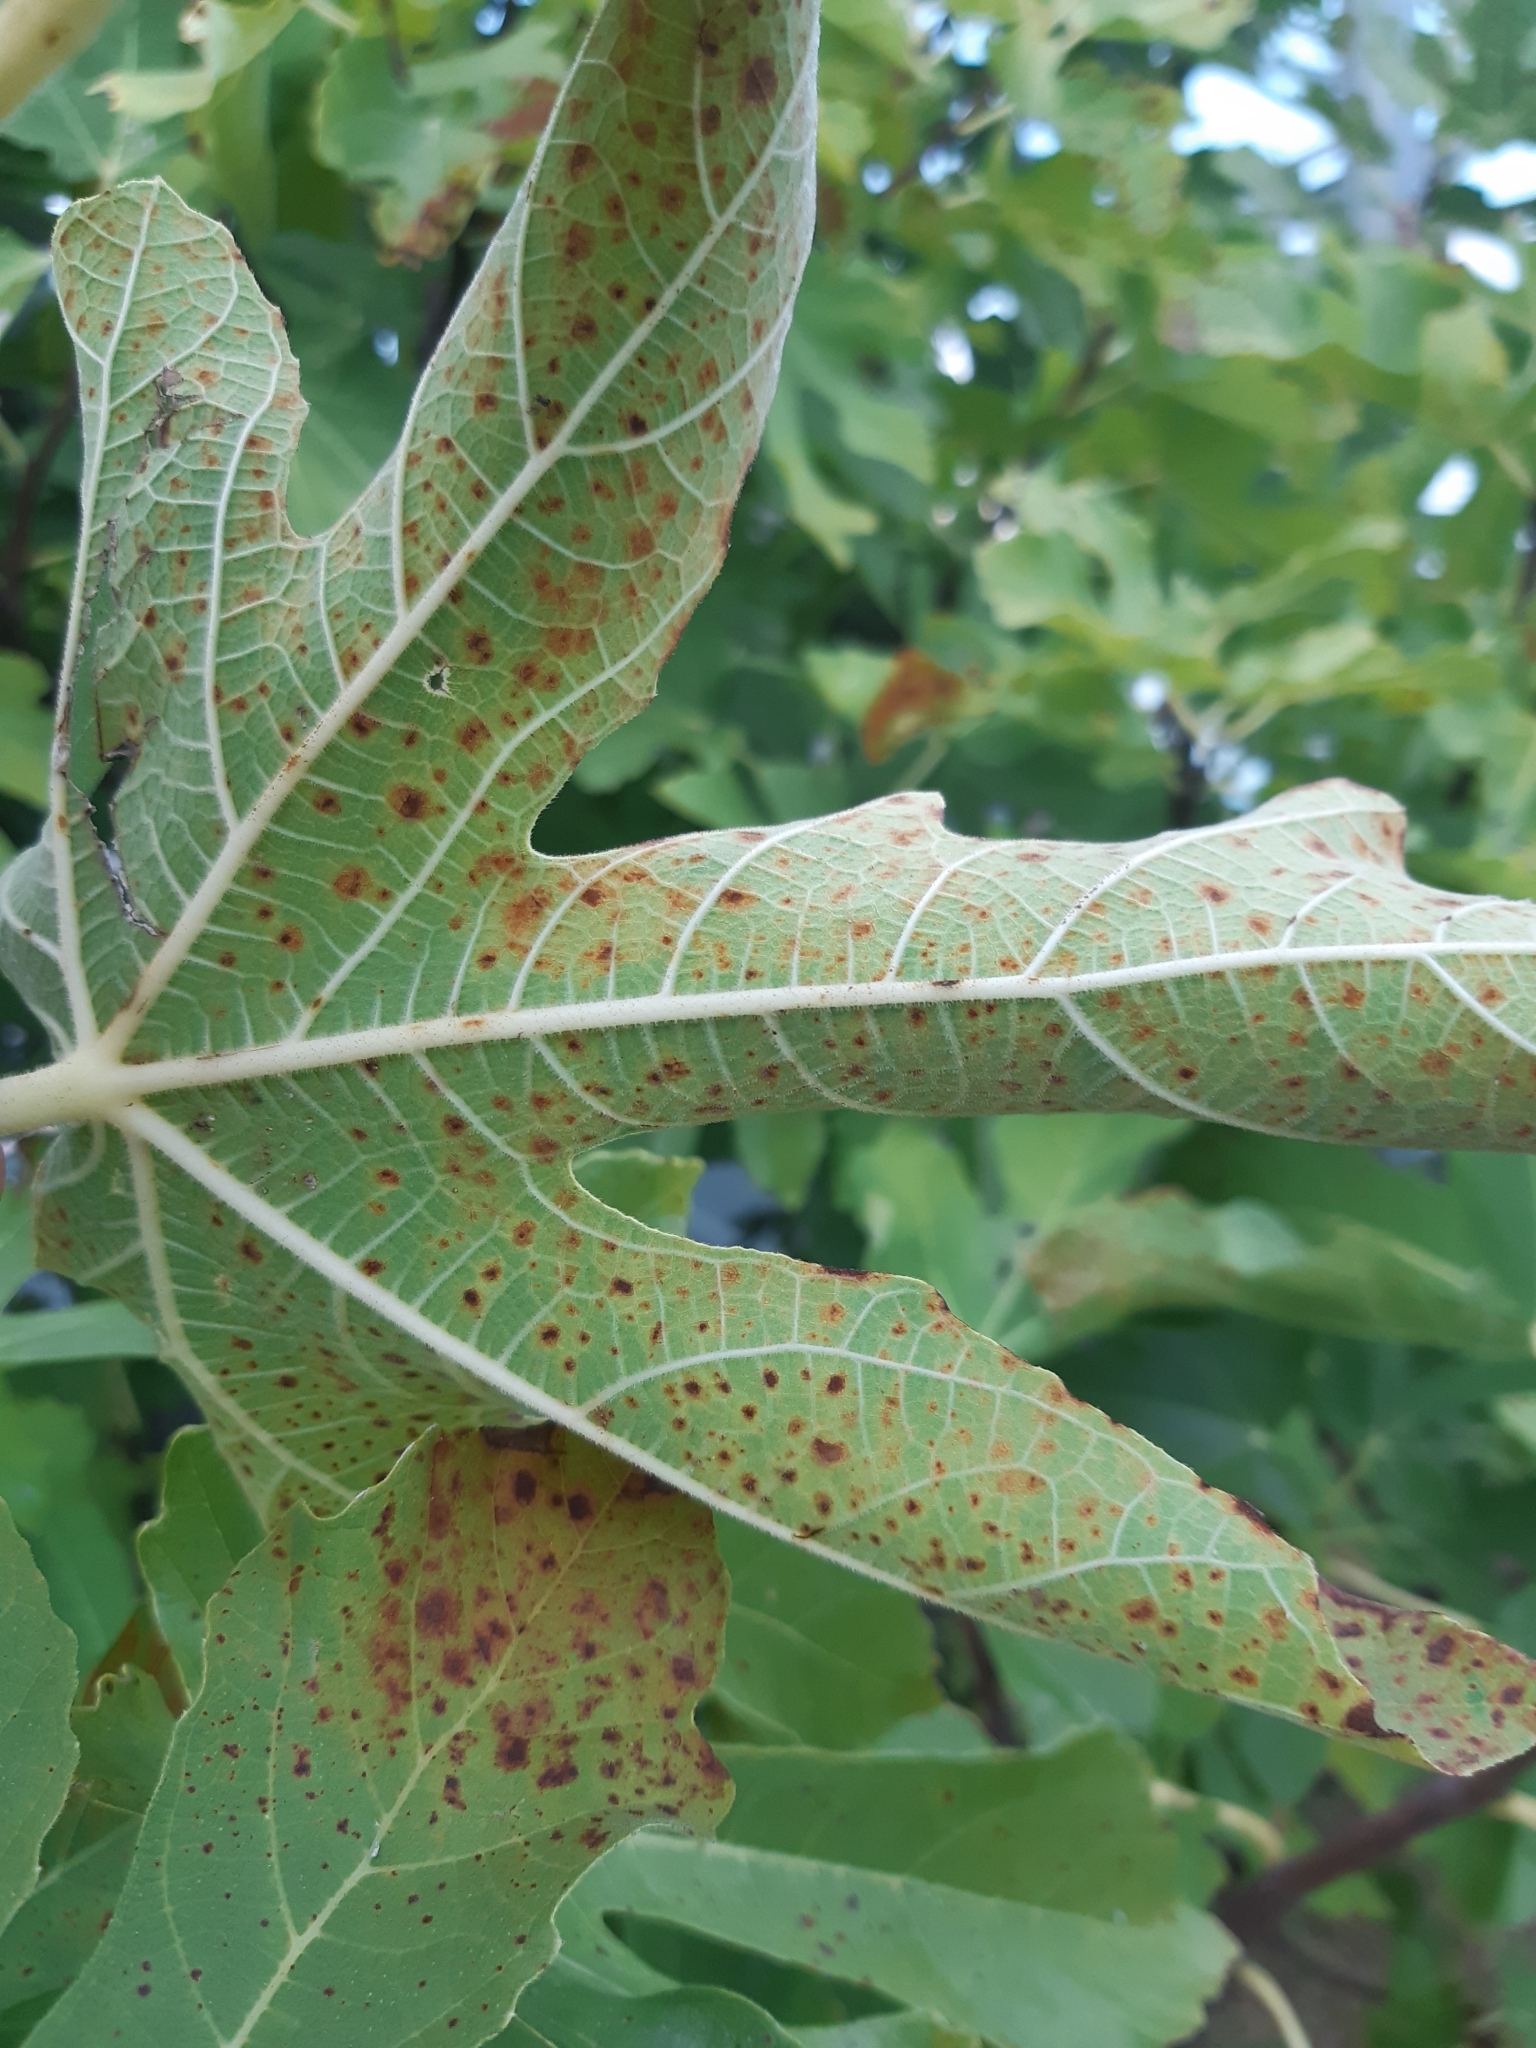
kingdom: Plantae
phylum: Tracheophyta
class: Magnoliopsida
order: Rosales
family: Moraceae
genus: Ficus
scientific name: Ficus carica
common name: Fig
